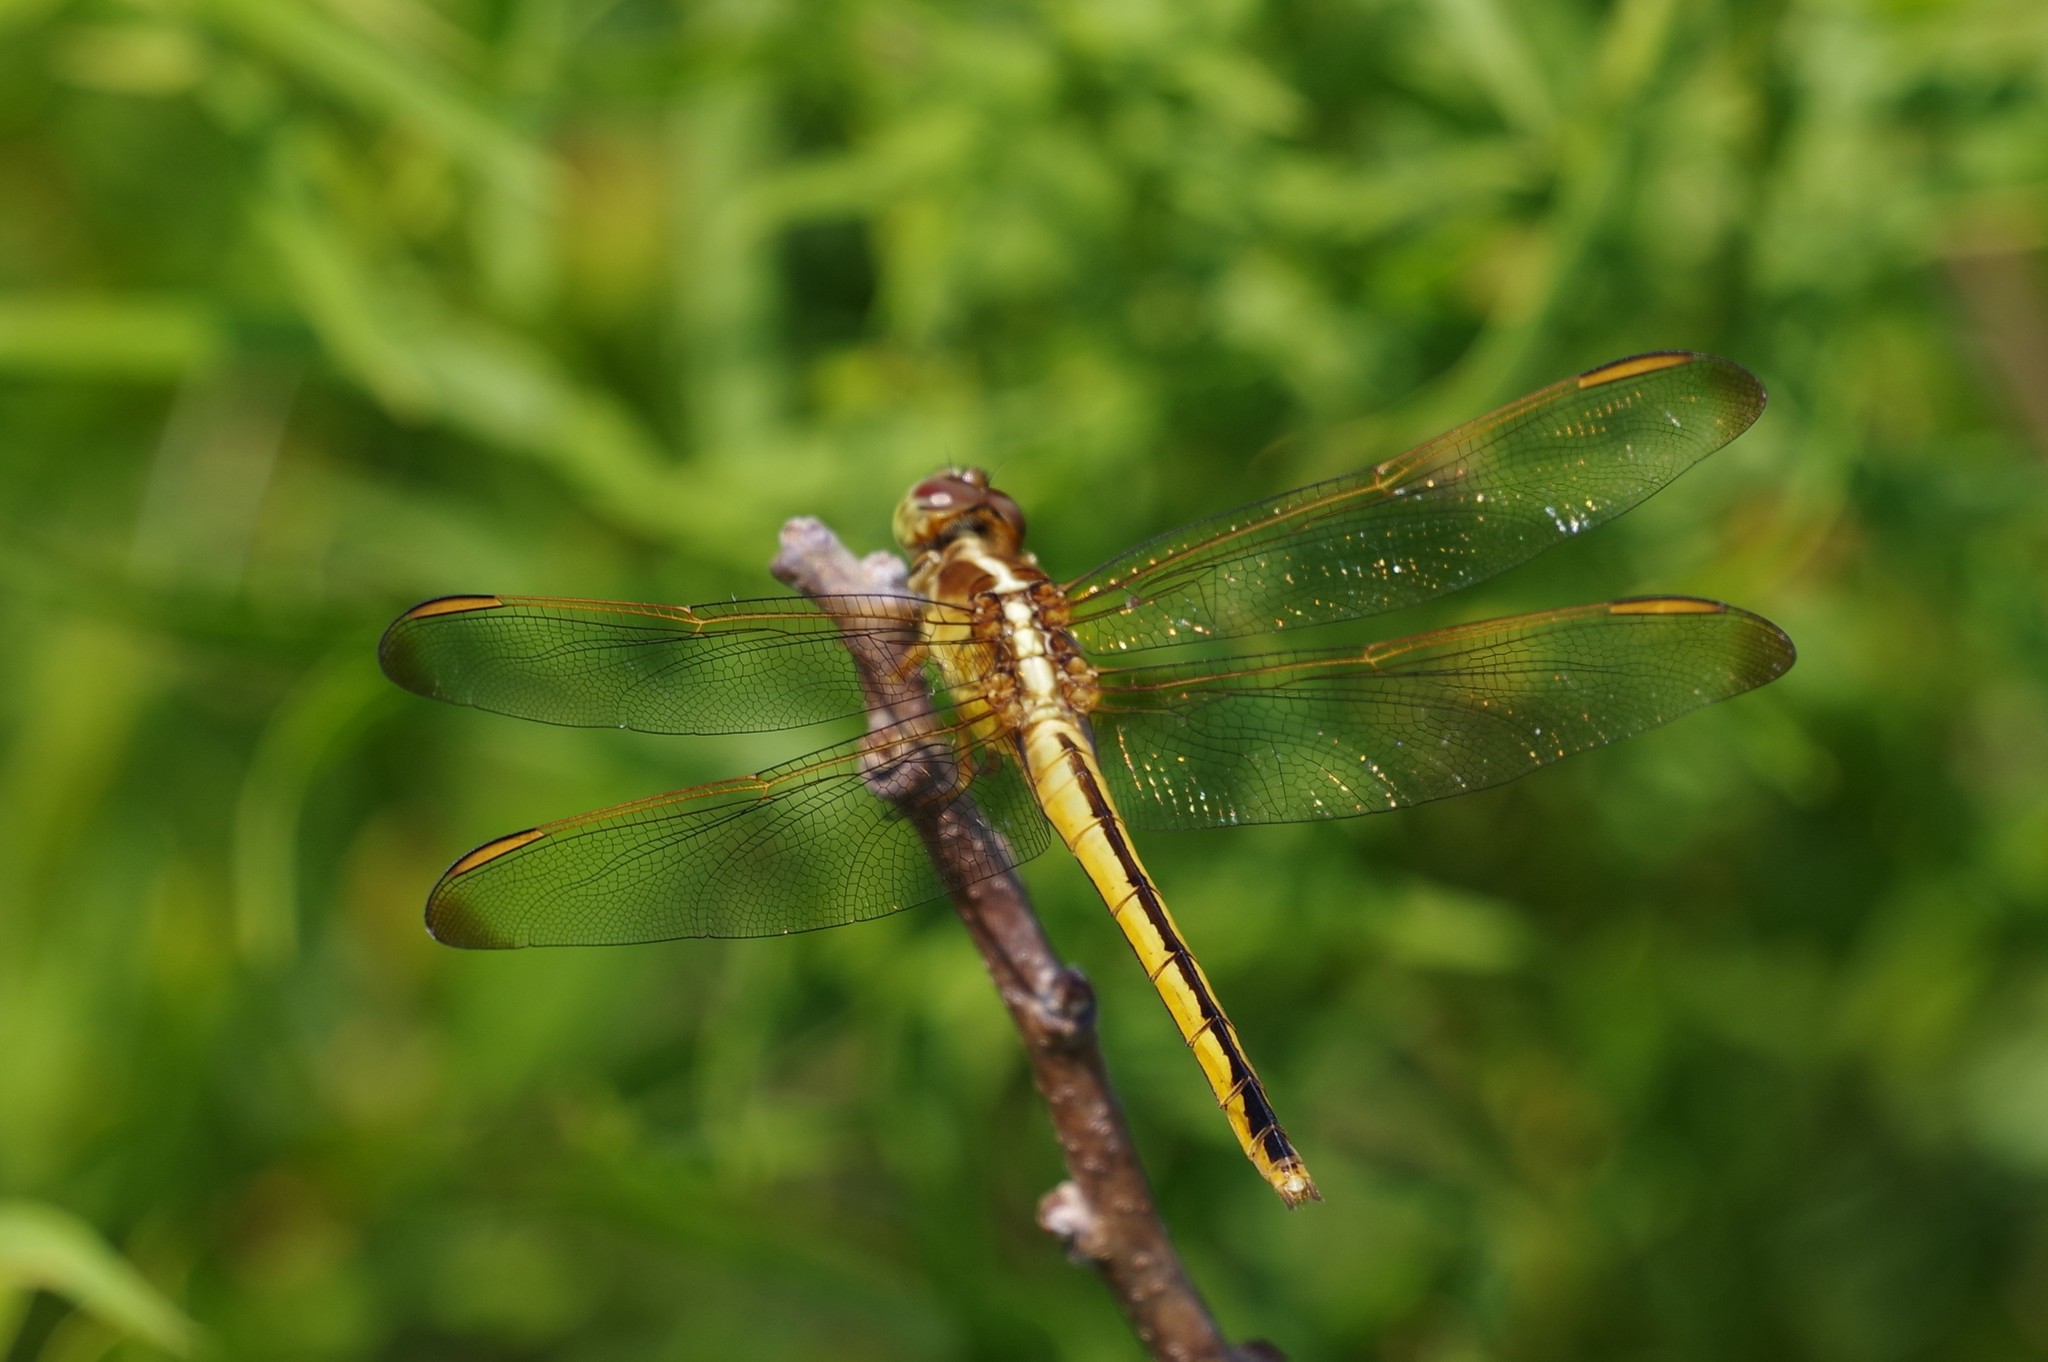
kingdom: Animalia
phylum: Arthropoda
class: Insecta
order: Odonata
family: Libellulidae
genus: Libellula
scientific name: Libellula needhami
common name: Needham's skimmer
